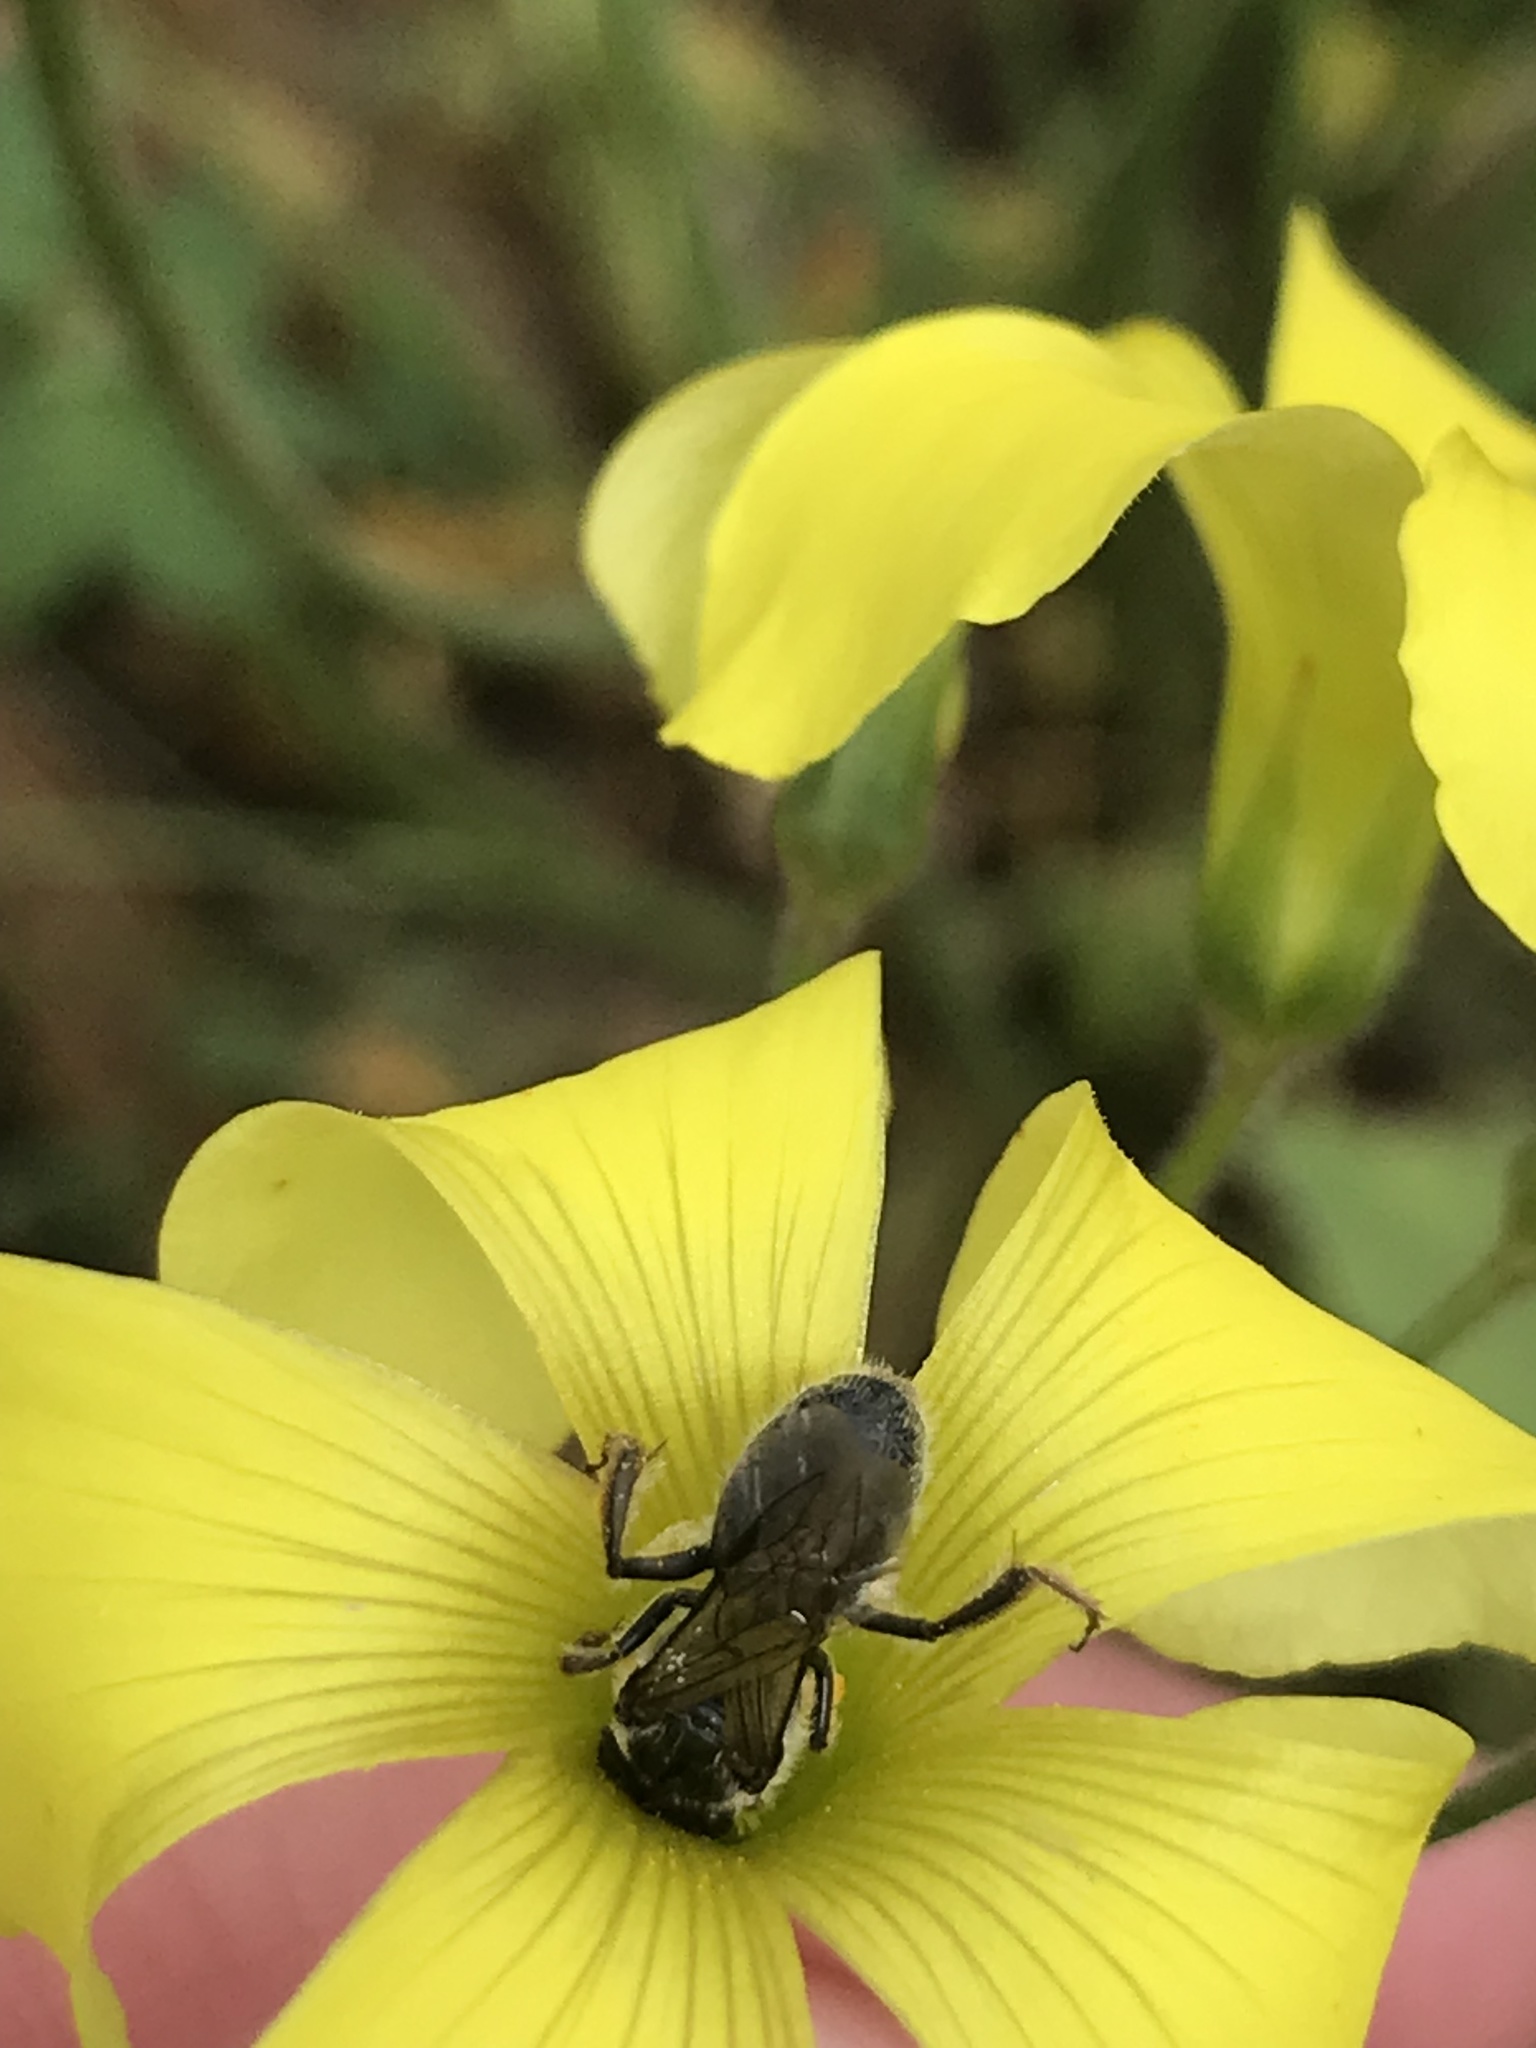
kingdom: Animalia
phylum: Arthropoda
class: Insecta
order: Hymenoptera
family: Halictidae
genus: Lasioglossum
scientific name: Lasioglossum viride
